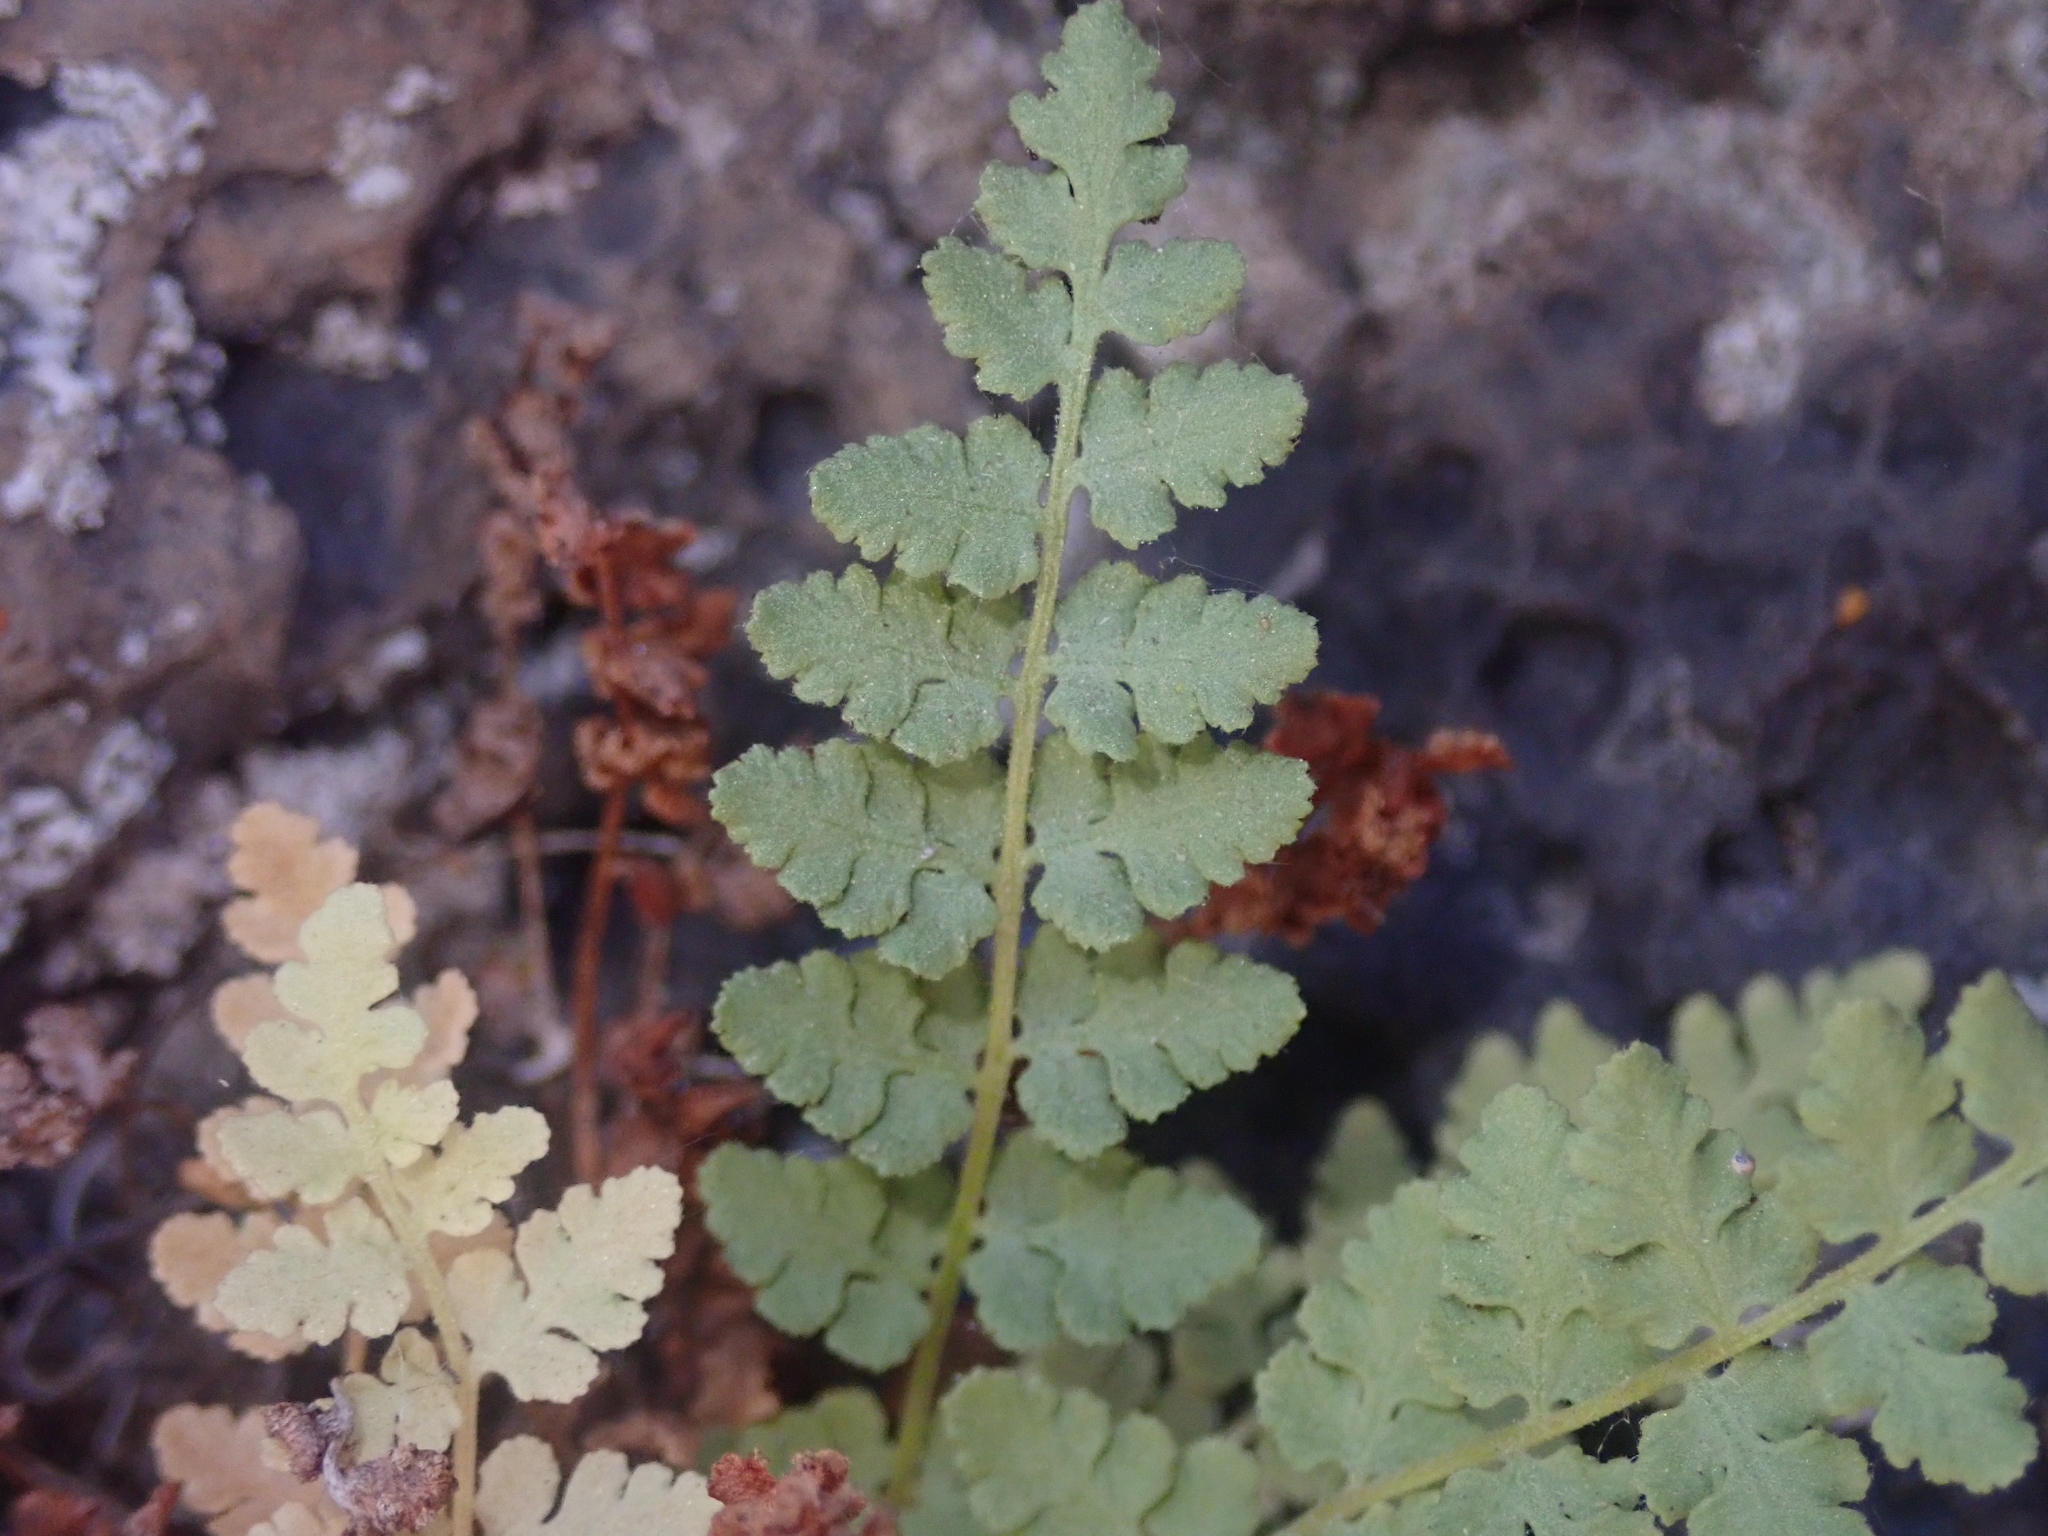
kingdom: Plantae
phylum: Tracheophyta
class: Polypodiopsida
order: Polypodiales
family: Woodsiaceae
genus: Physematium
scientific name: Physematium scopulinum
